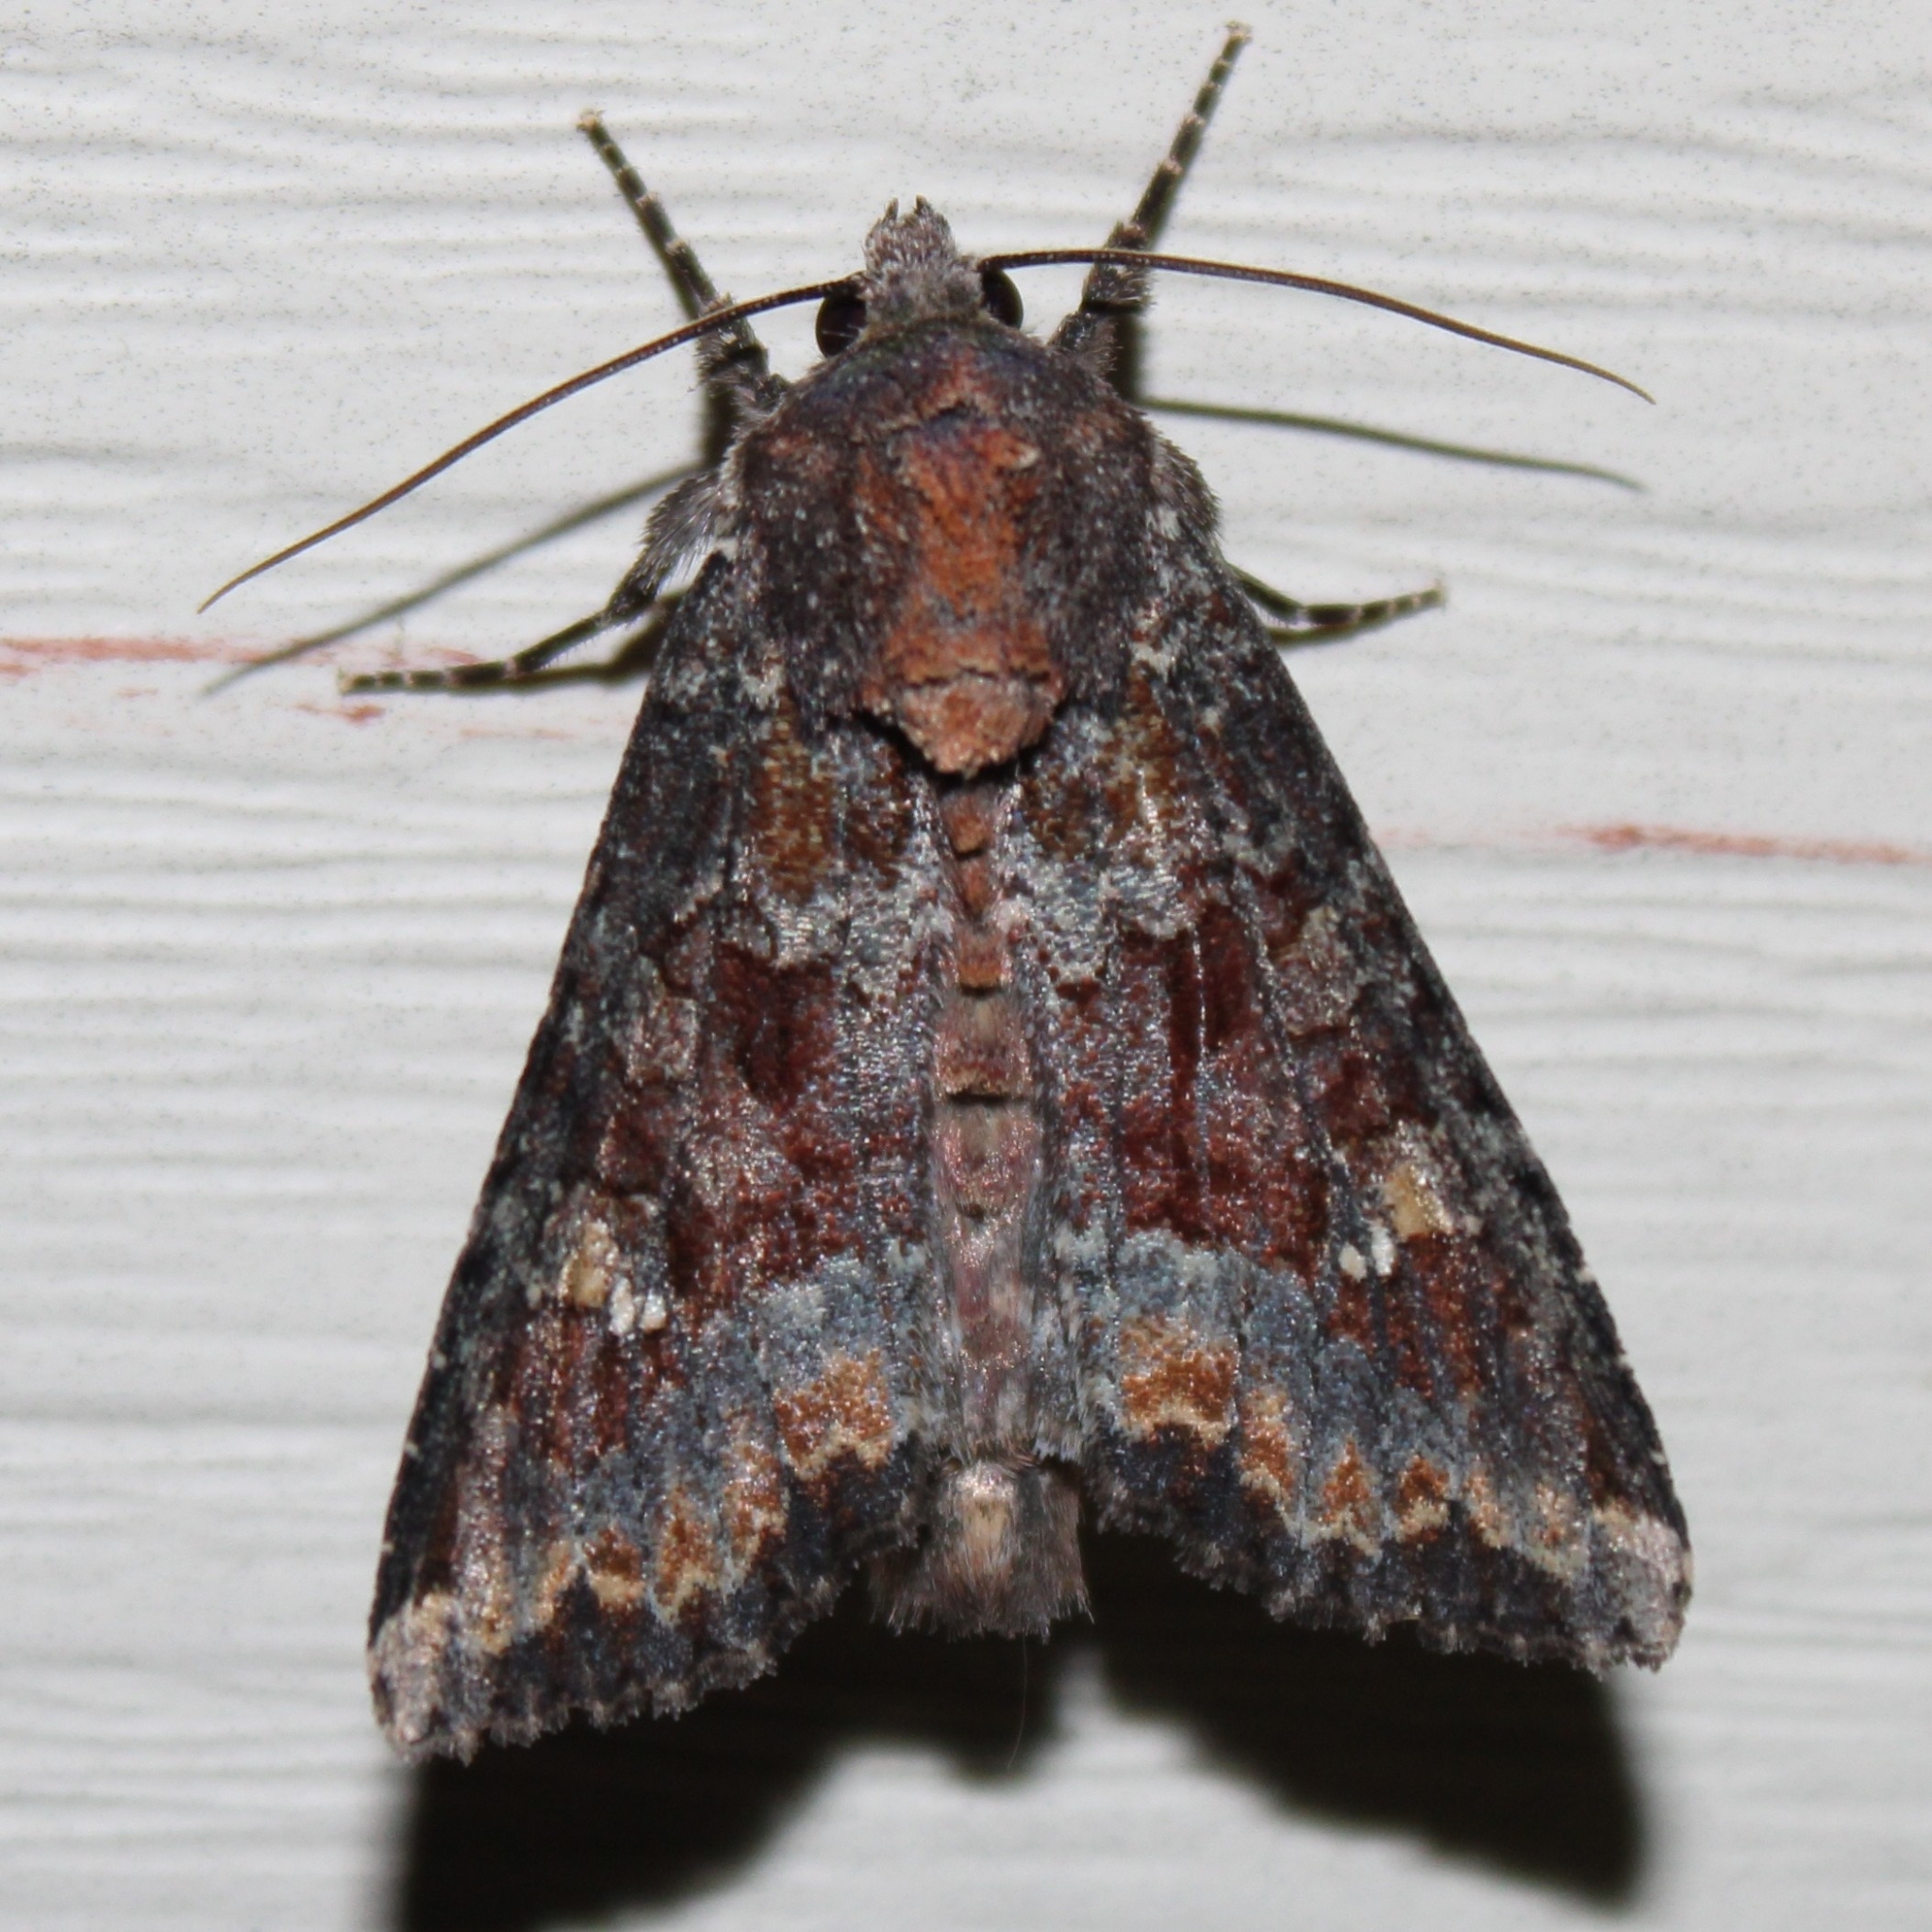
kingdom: Animalia
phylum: Arthropoda
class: Insecta
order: Lepidoptera
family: Noctuidae
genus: Apamea
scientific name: Apamea amputatrix
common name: Yellow-headed cutworm moth
